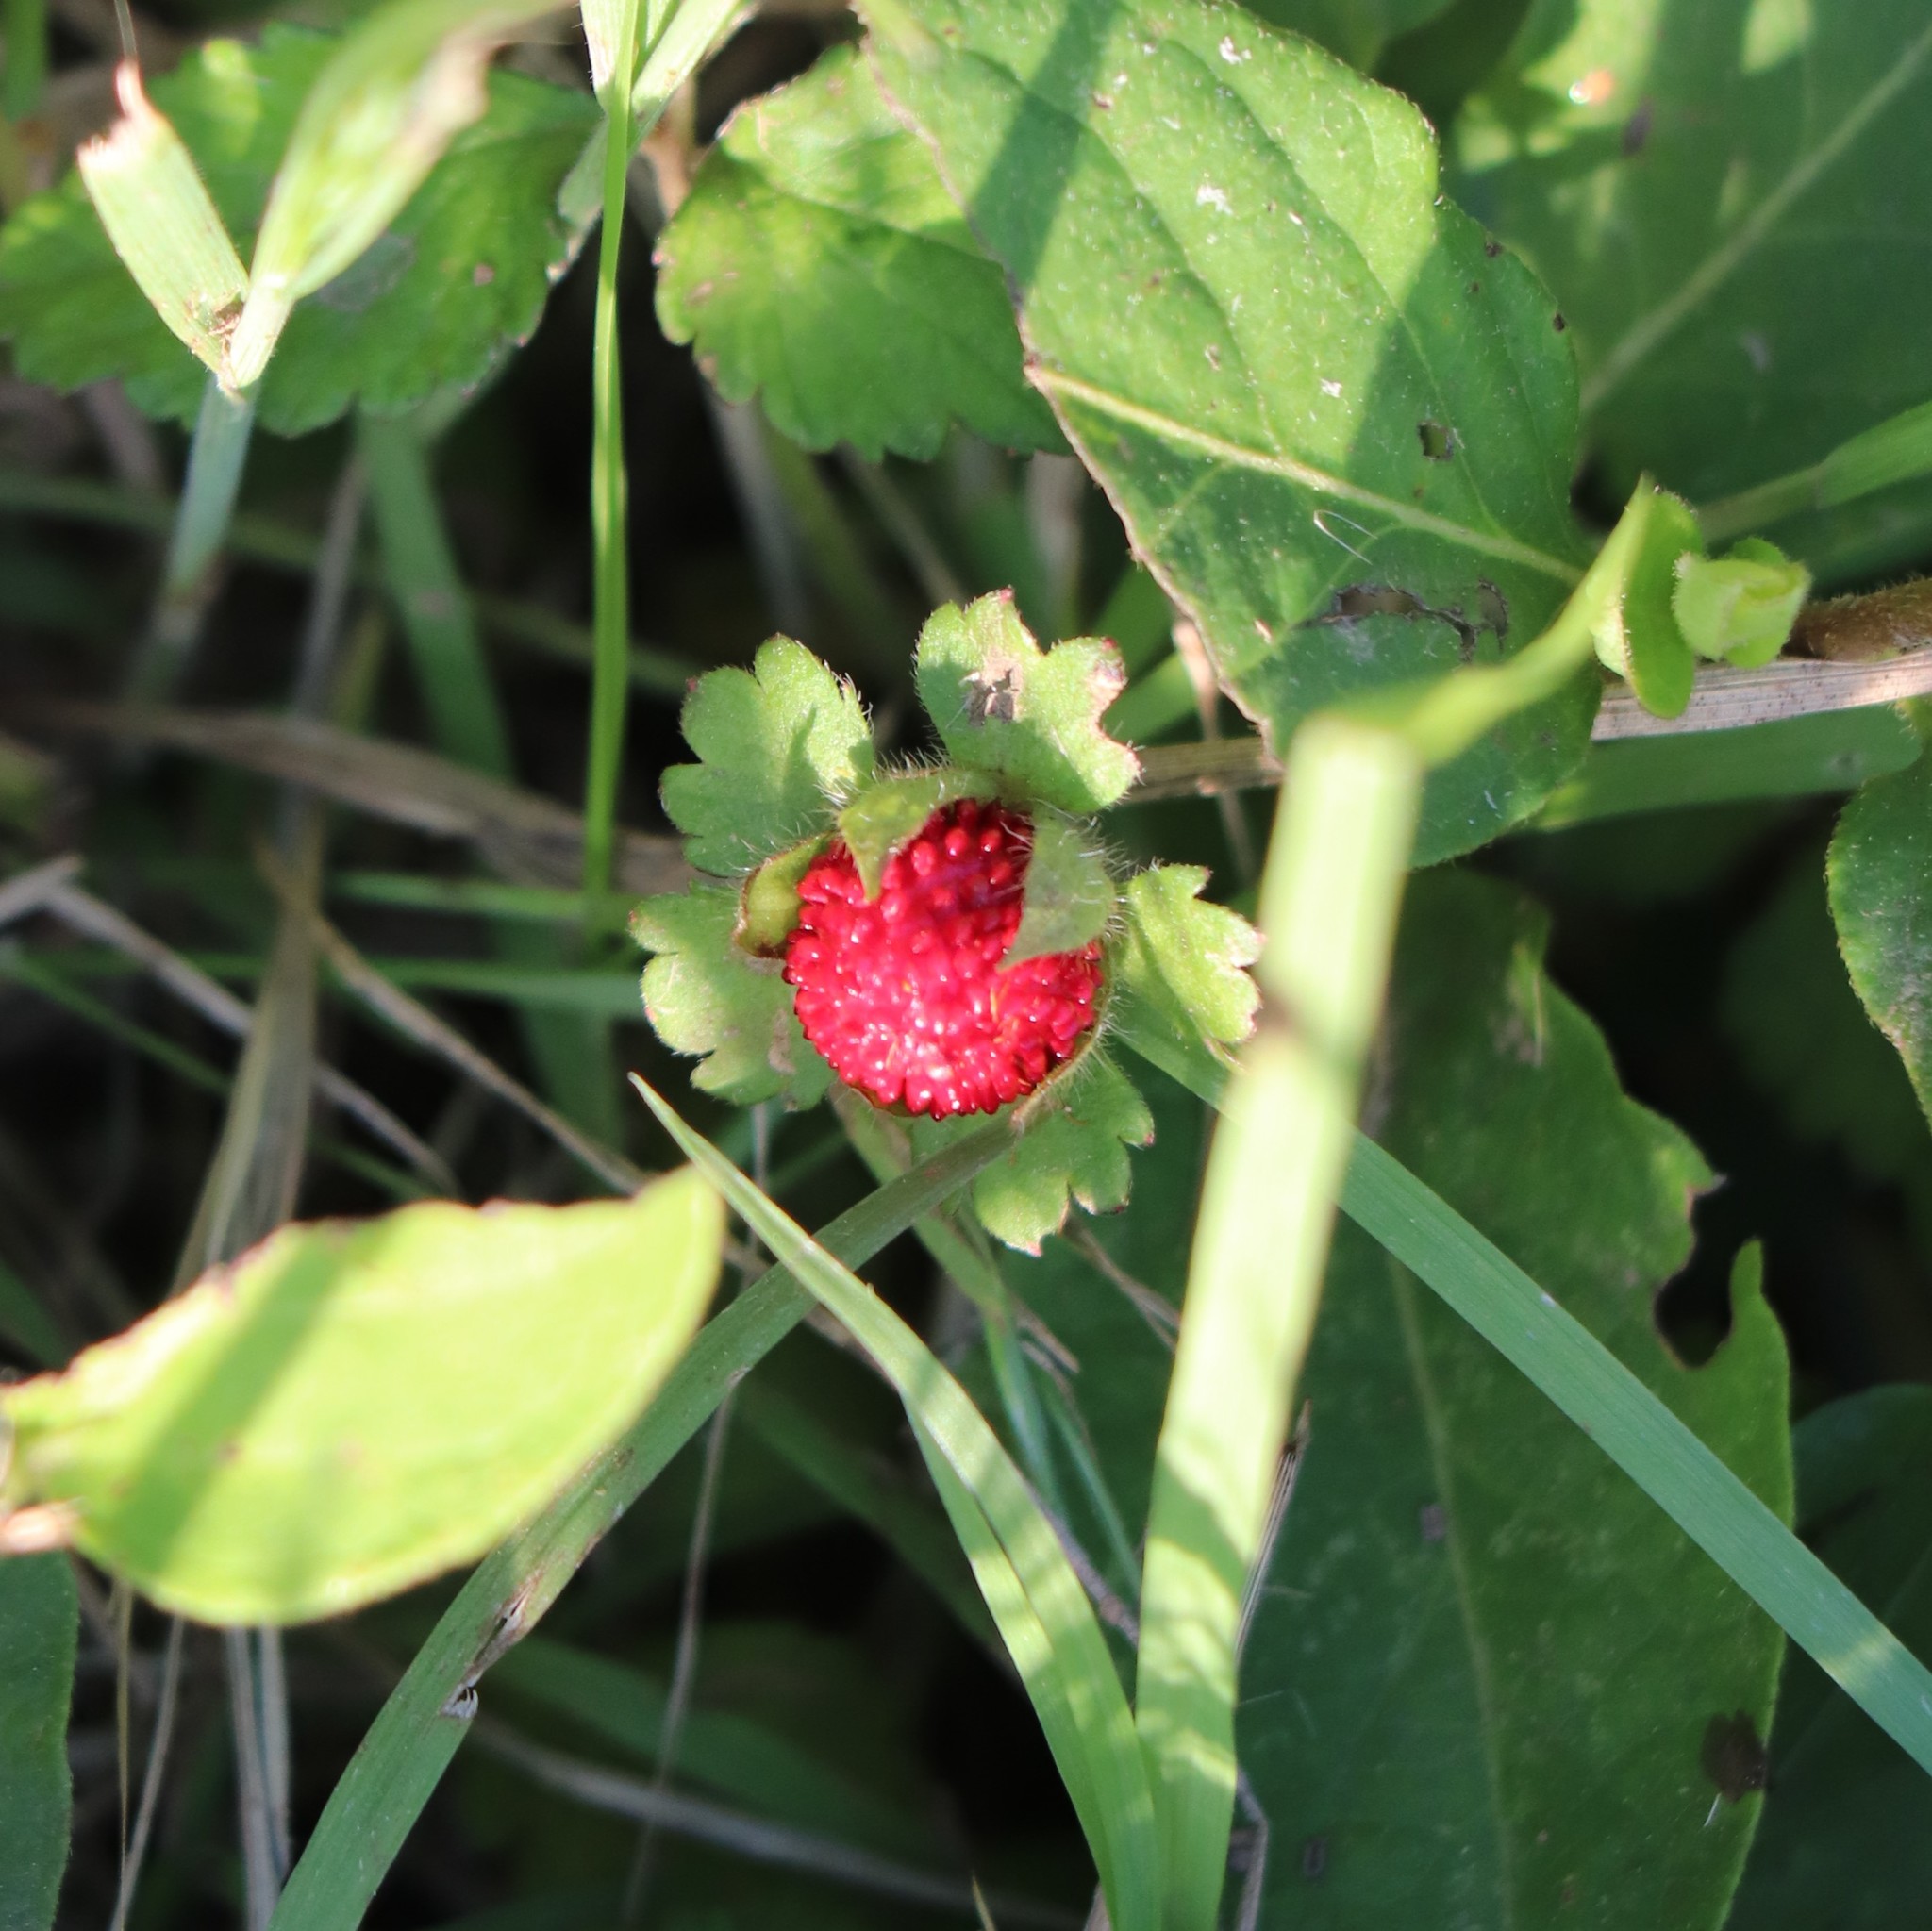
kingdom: Plantae
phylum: Tracheophyta
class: Magnoliopsida
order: Rosales
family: Rosaceae
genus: Potentilla
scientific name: Potentilla indica
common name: Yellow-flowered strawberry
